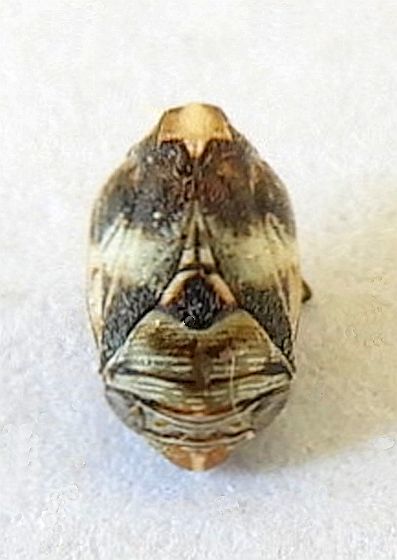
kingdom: Animalia
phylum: Arthropoda
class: Insecta
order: Hemiptera
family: Clastopteridae
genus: Clastoptera
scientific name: Clastoptera arizonana
